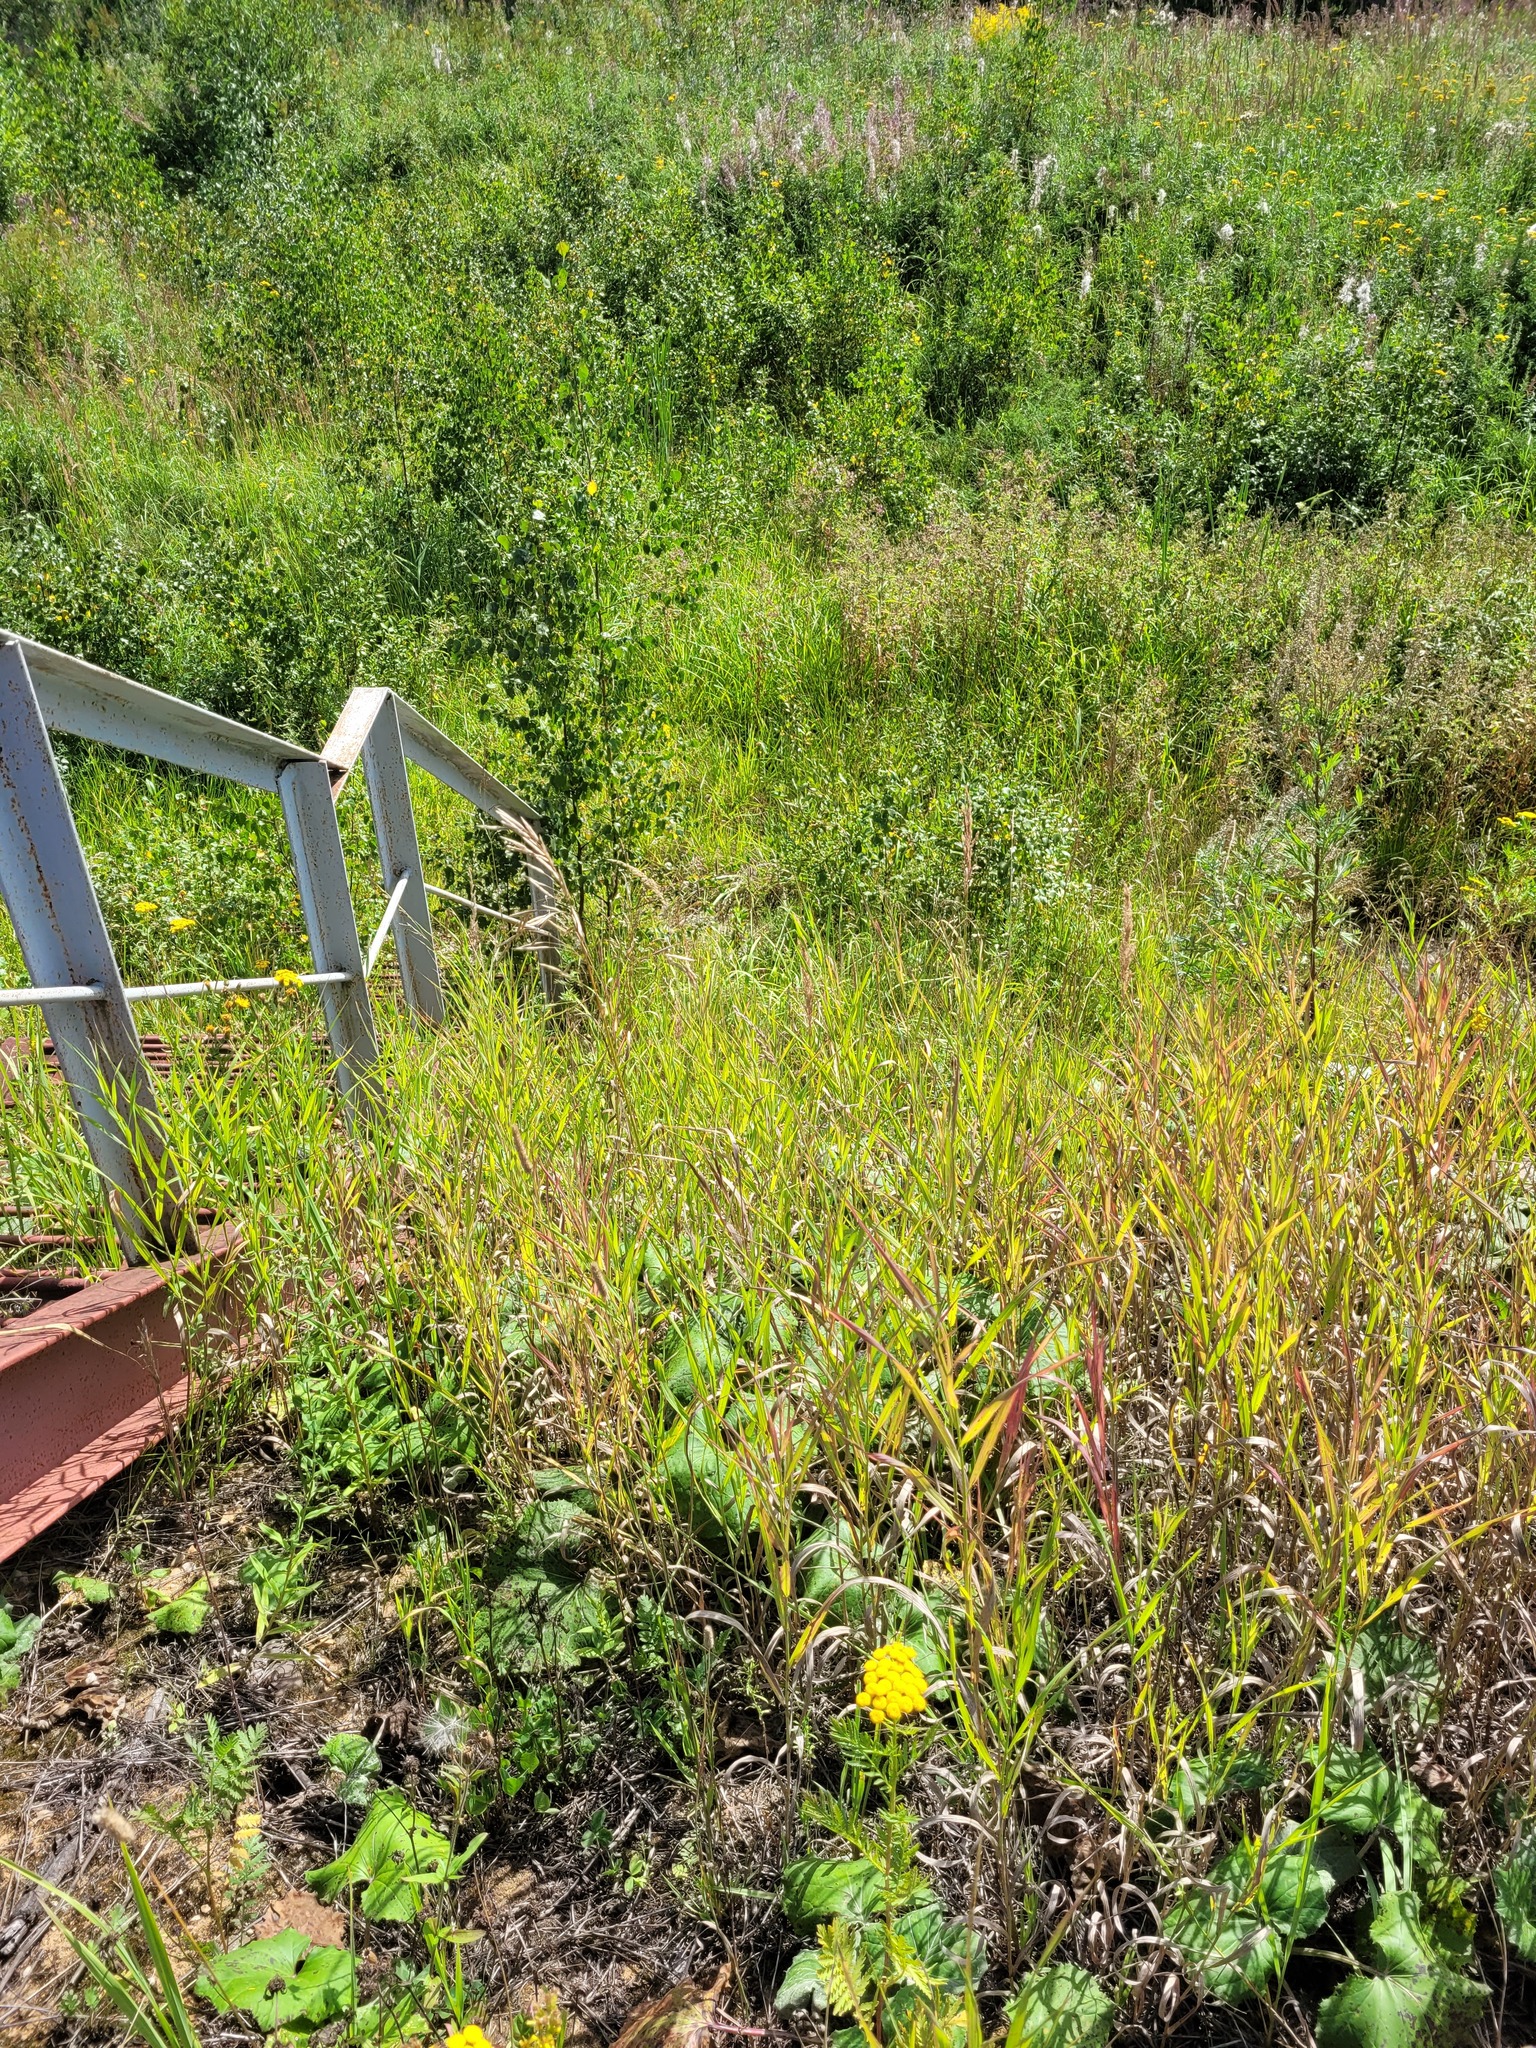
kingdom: Plantae
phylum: Tracheophyta
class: Liliopsida
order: Poales
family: Poaceae
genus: Bromus
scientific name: Bromus inermis
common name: Smooth brome
